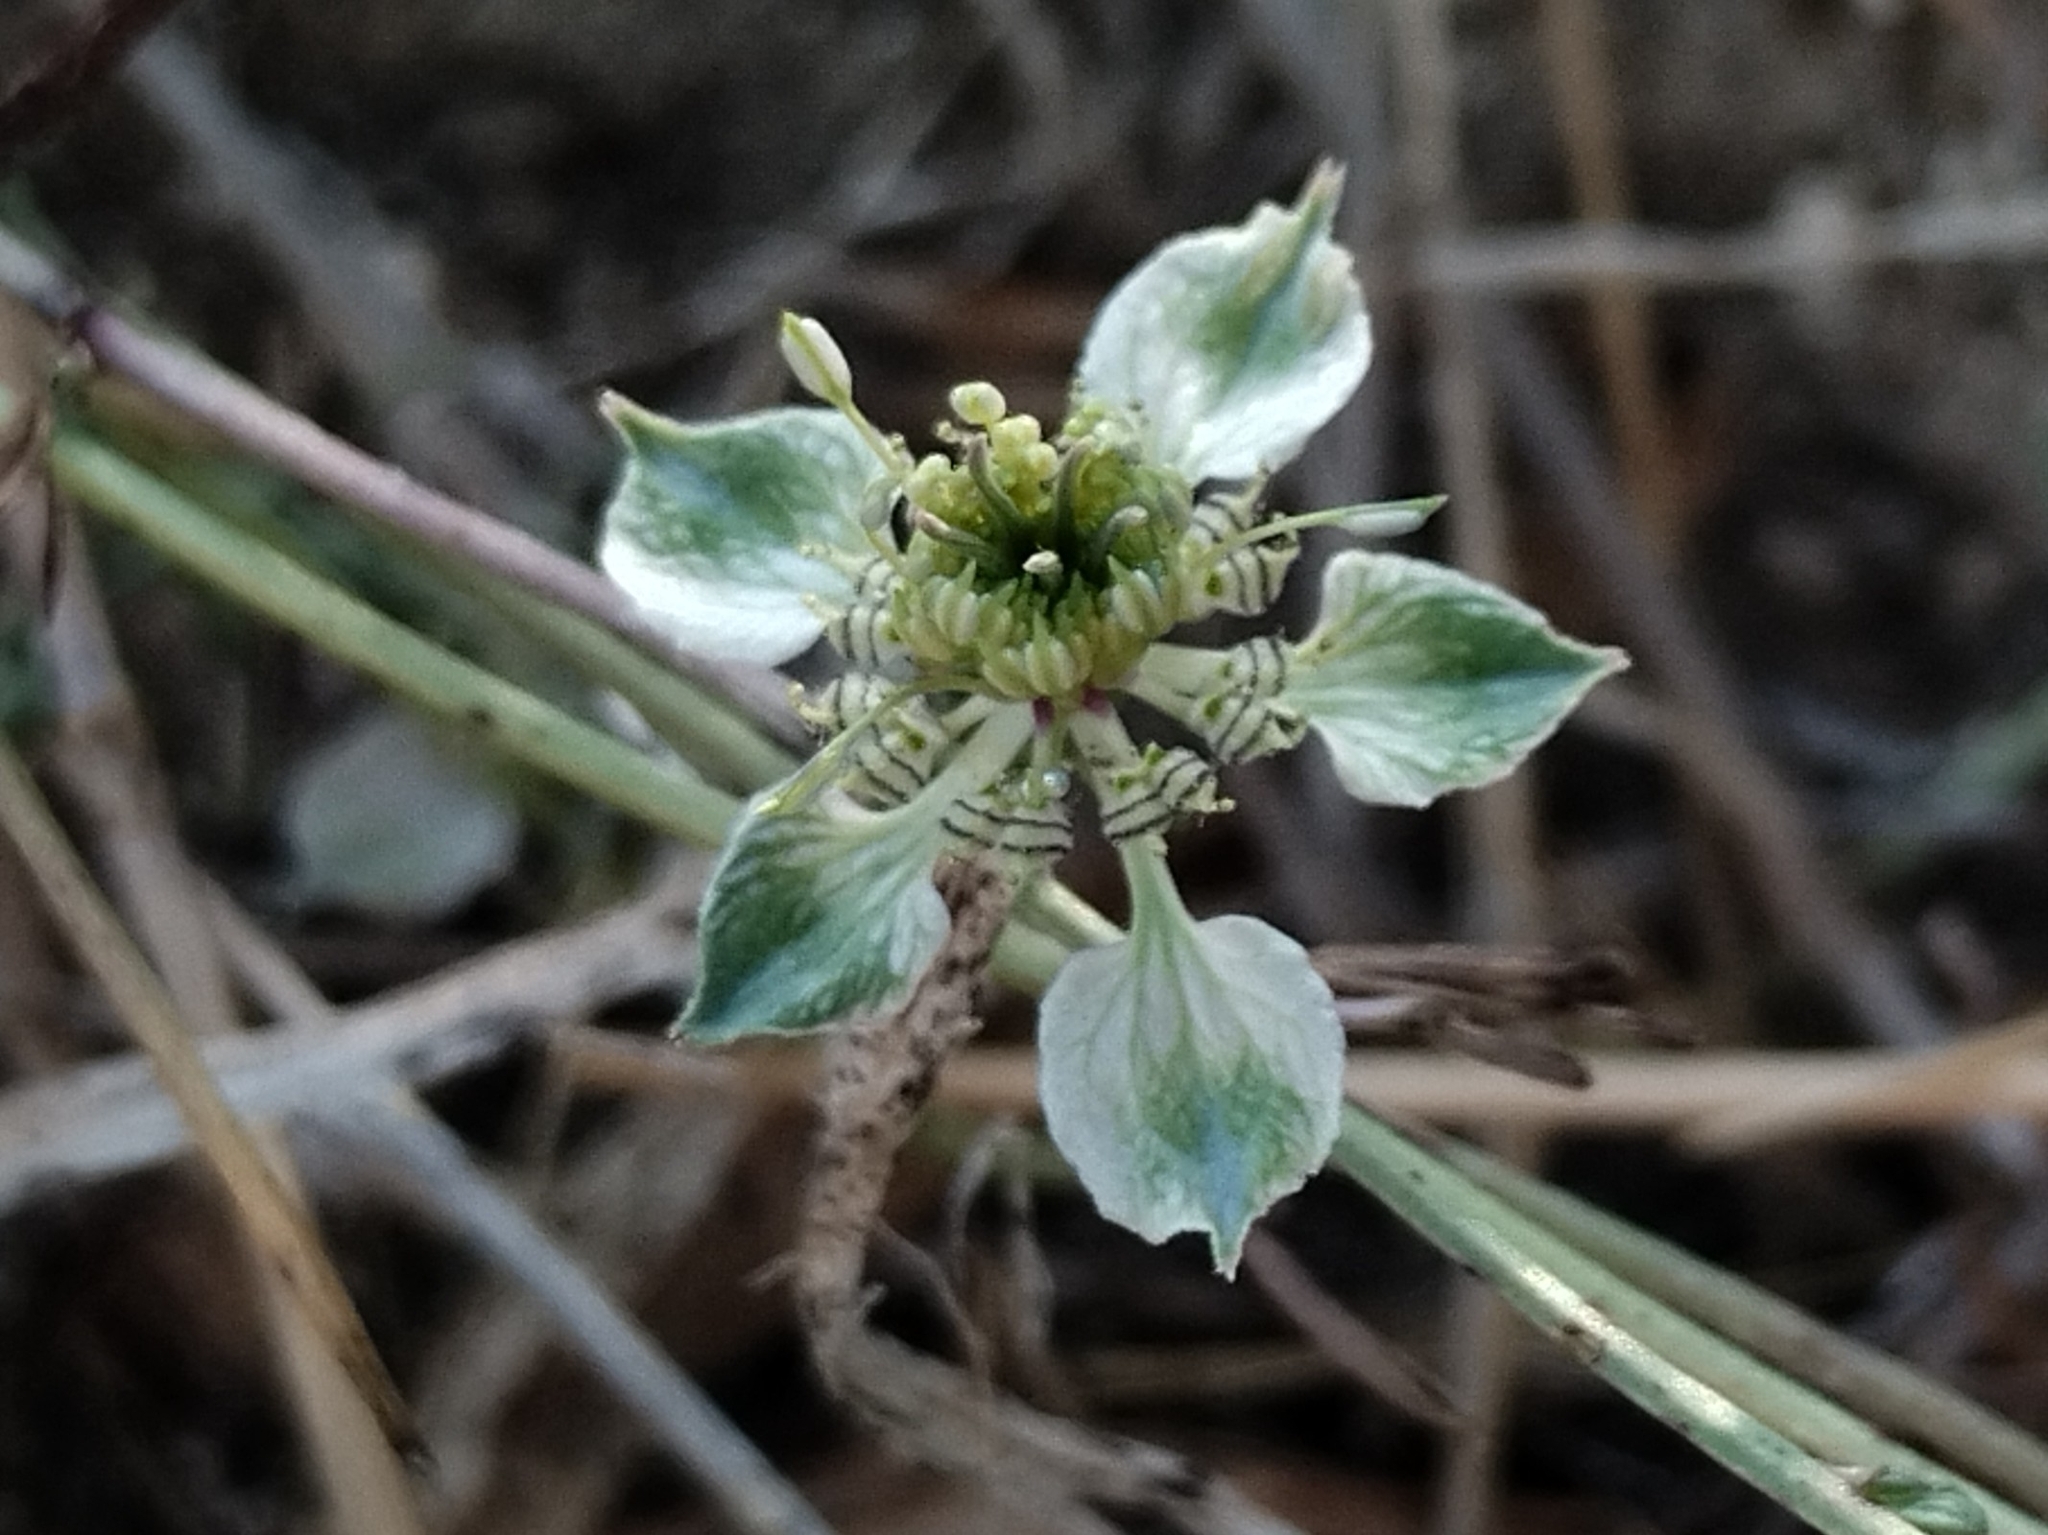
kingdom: Plantae
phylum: Tracheophyta
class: Magnoliopsida
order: Ranunculales
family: Ranunculaceae
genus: Nigella
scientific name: Nigella arvensis
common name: Wild fennel-flower
